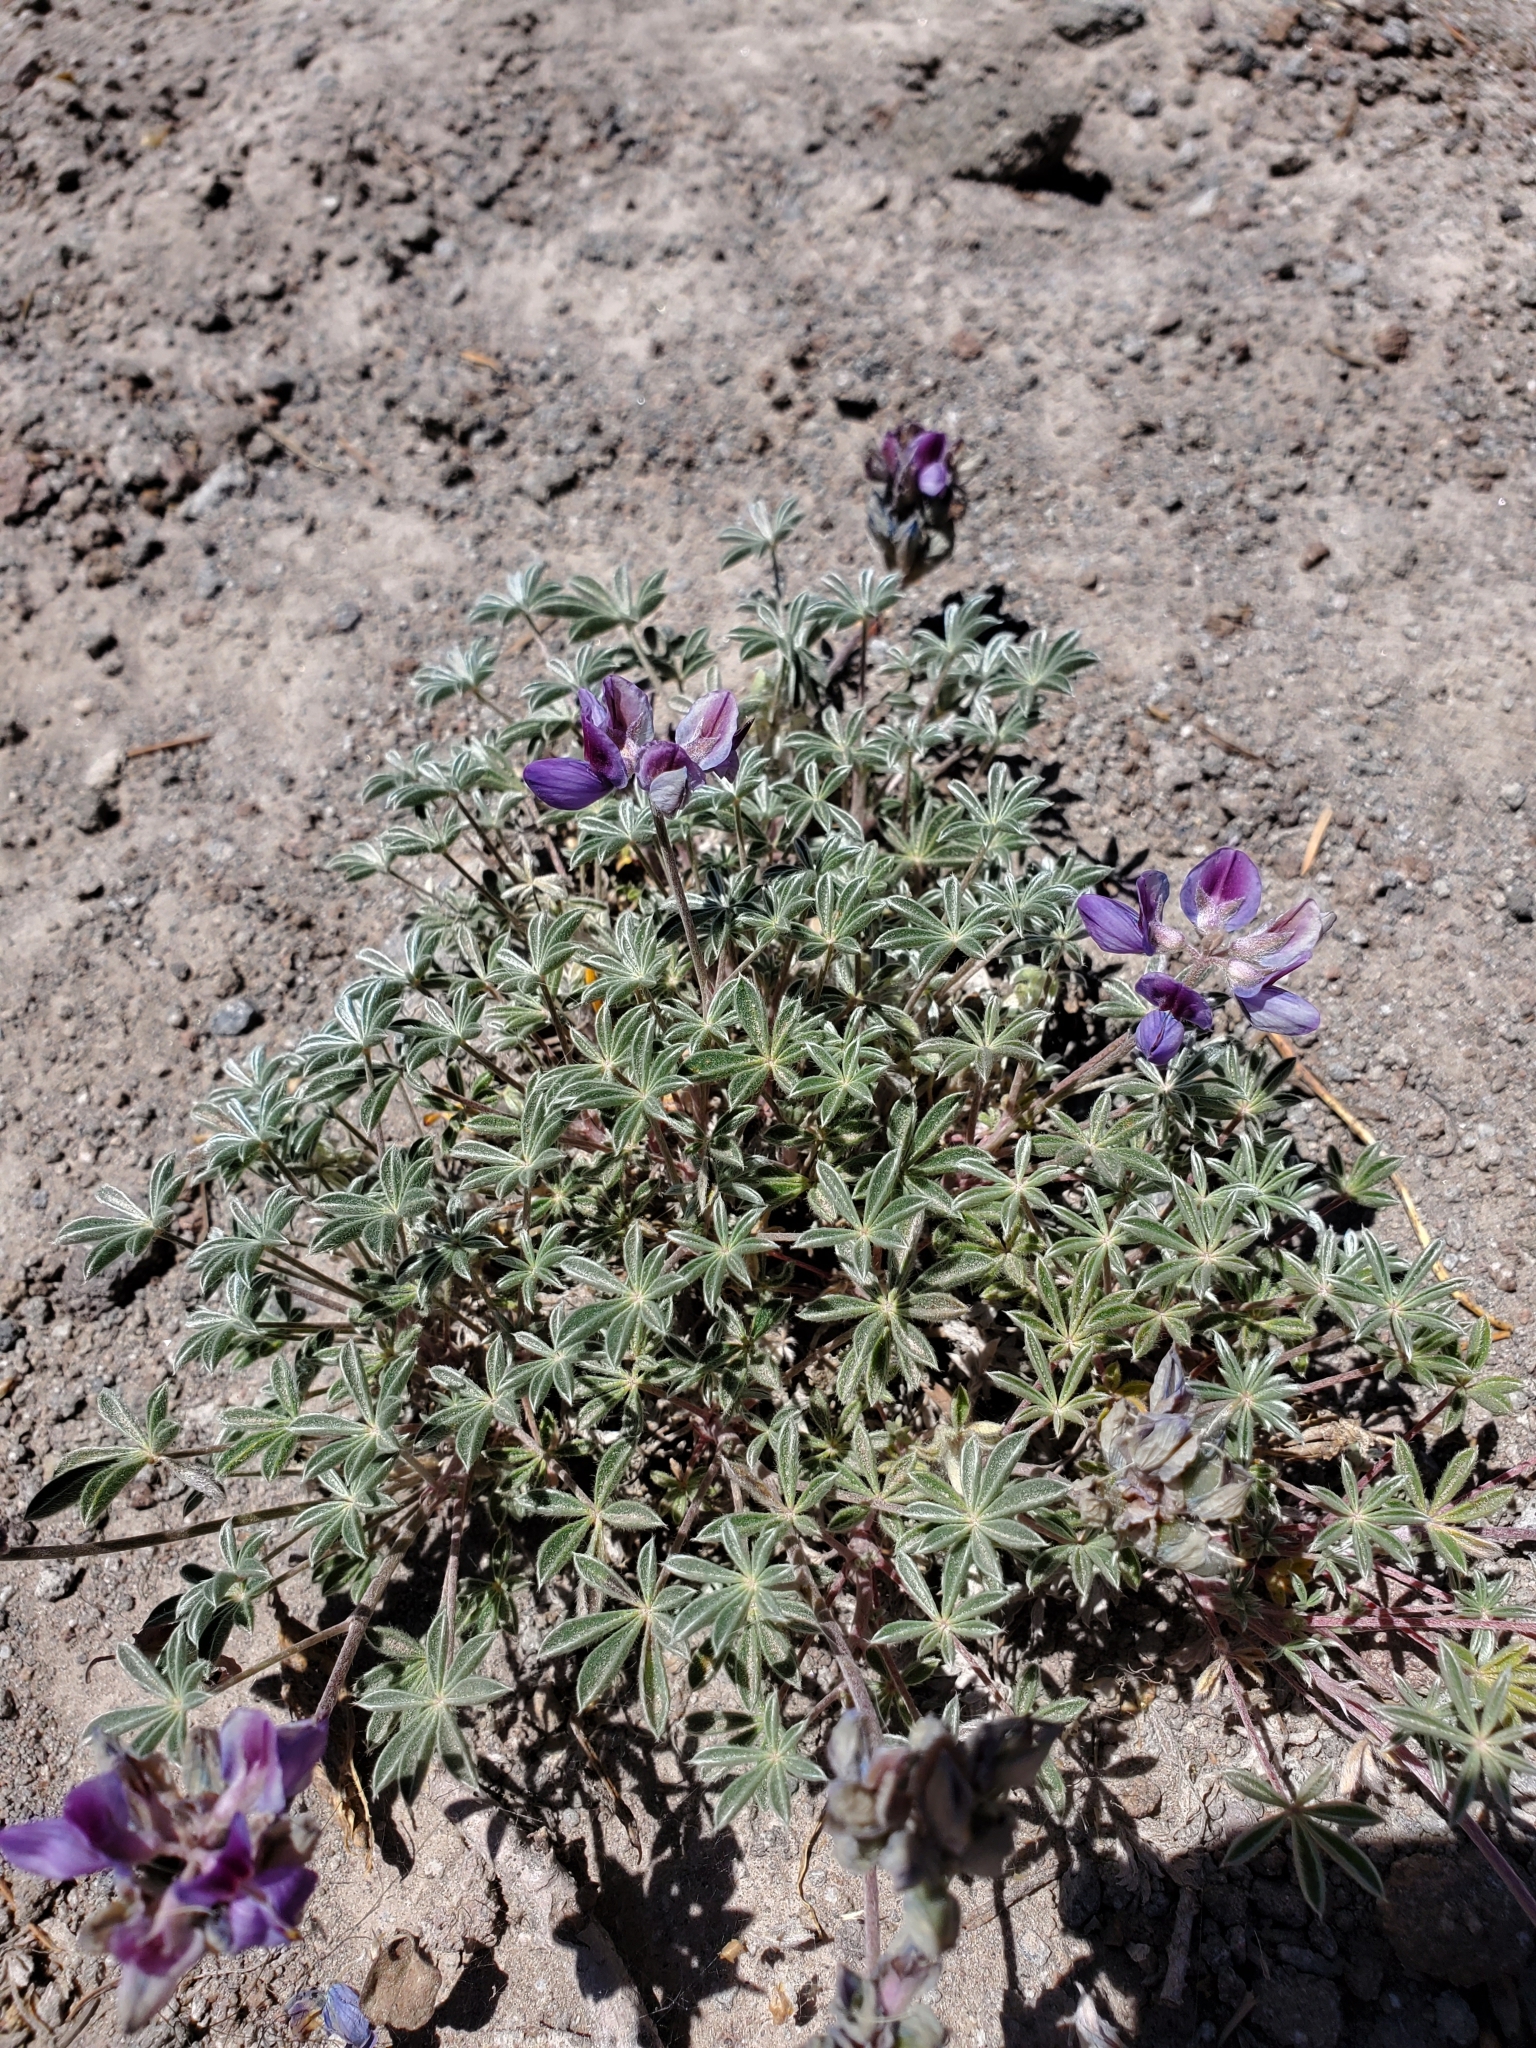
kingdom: Plantae
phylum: Tracheophyta
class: Magnoliopsida
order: Fabales
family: Fabaceae
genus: Lupinus
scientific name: Lupinus lepidus
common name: Prairie lupine
